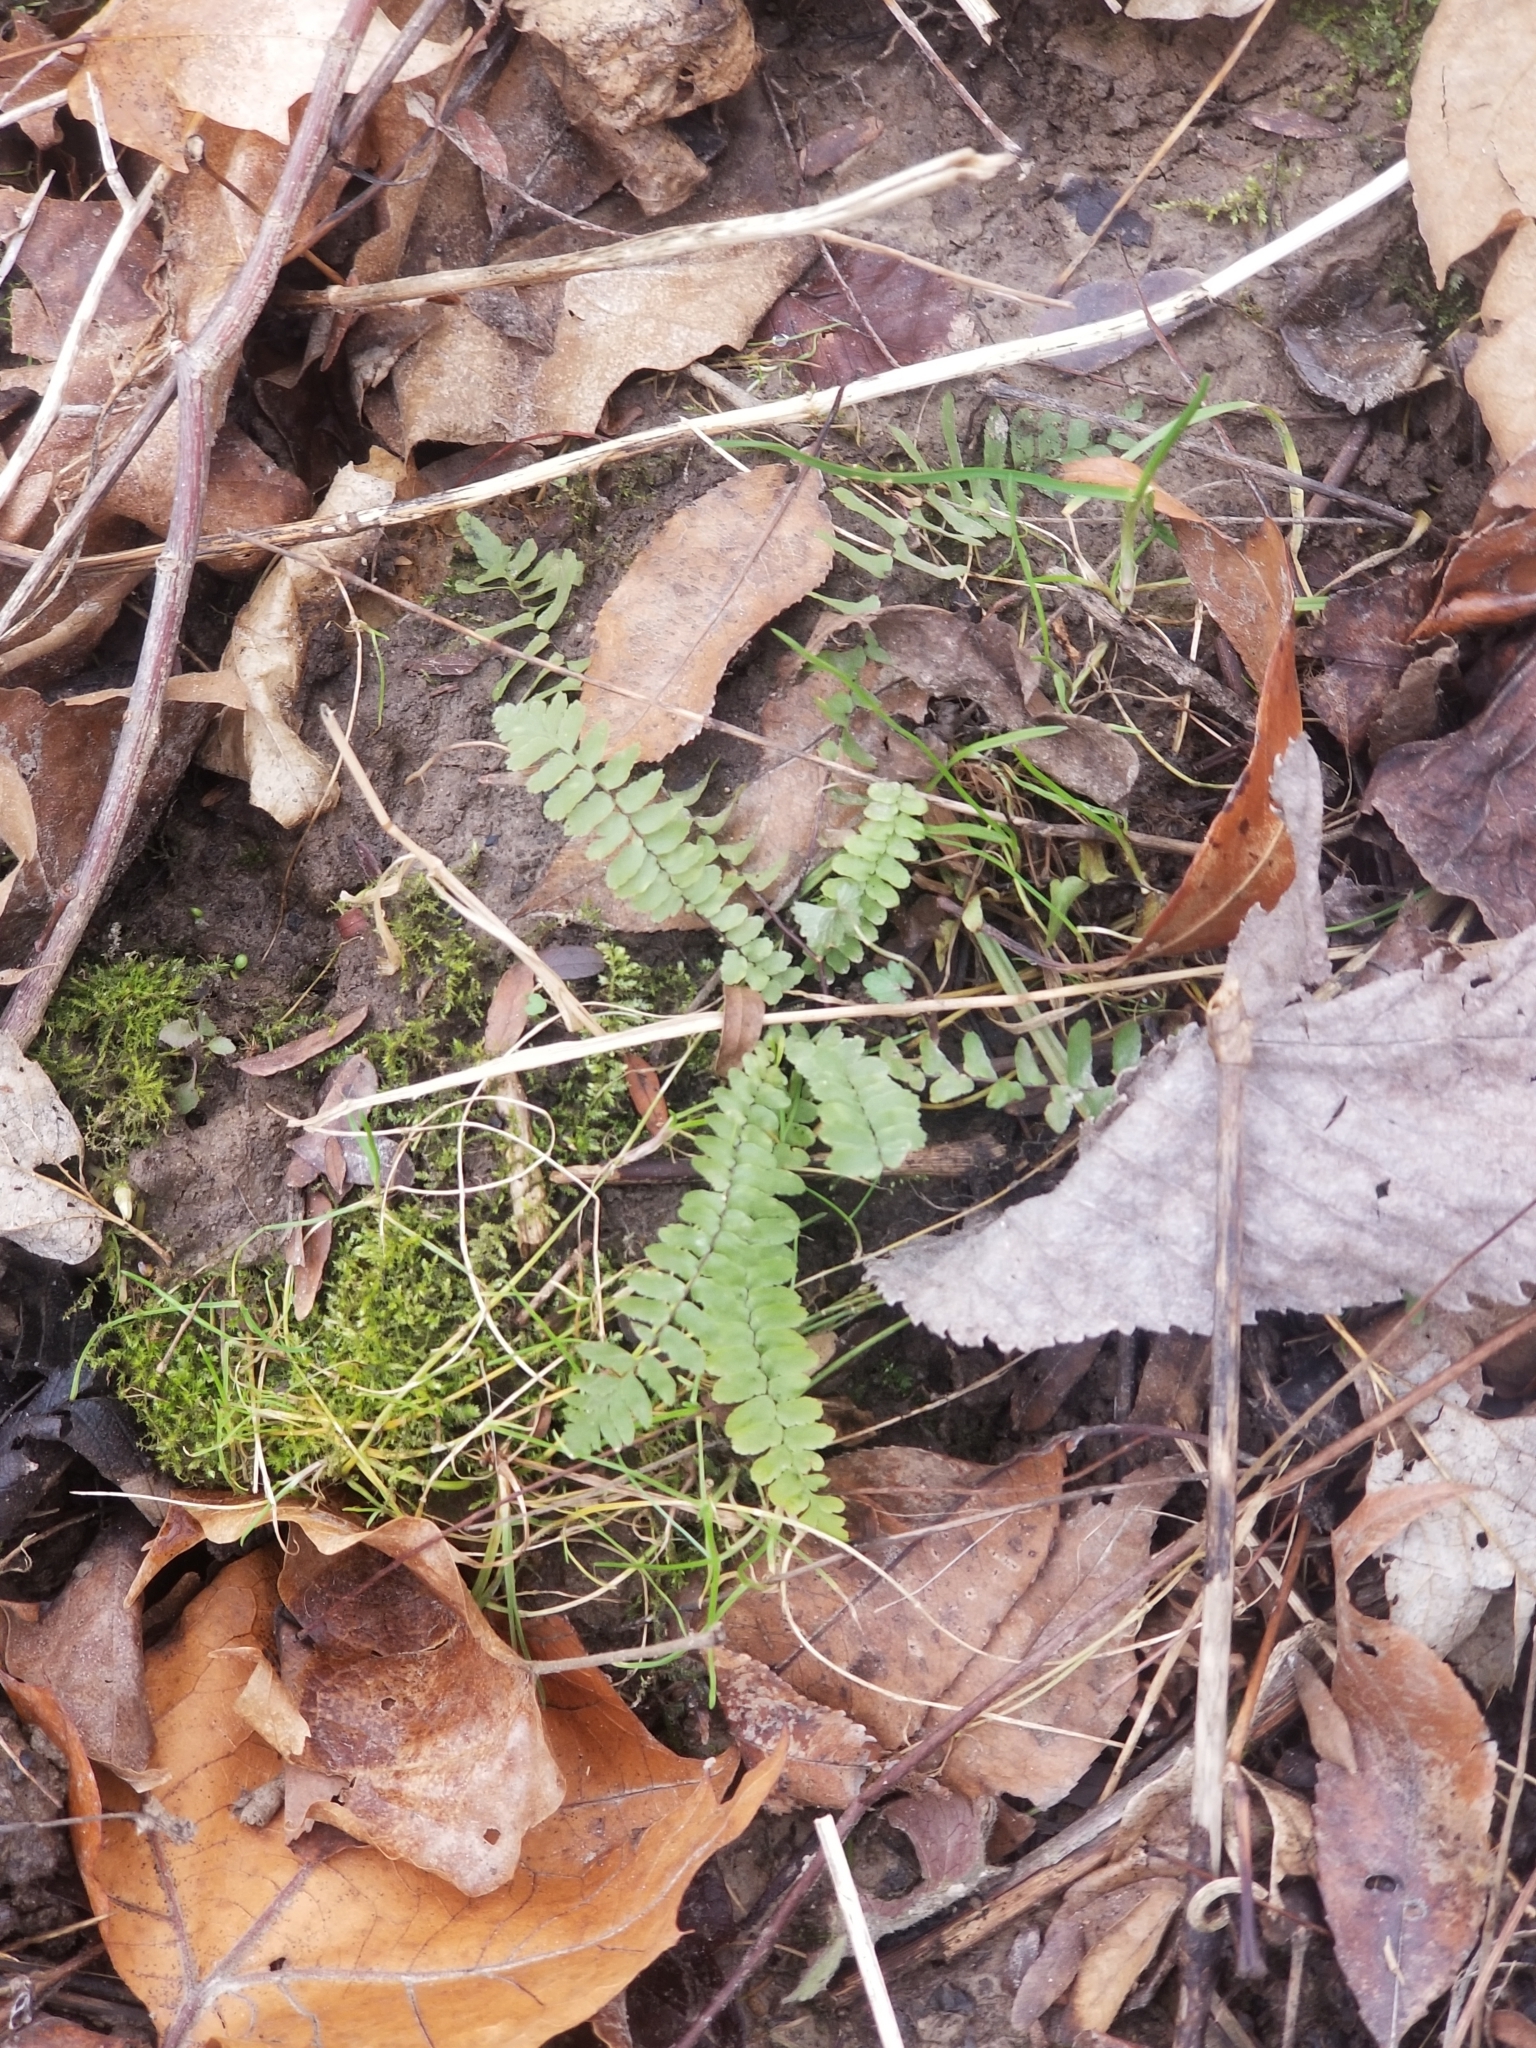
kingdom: Plantae
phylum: Tracheophyta
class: Polypodiopsida
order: Polypodiales
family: Aspleniaceae
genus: Asplenium
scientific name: Asplenium platyneuron
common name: Ebony spleenwort
